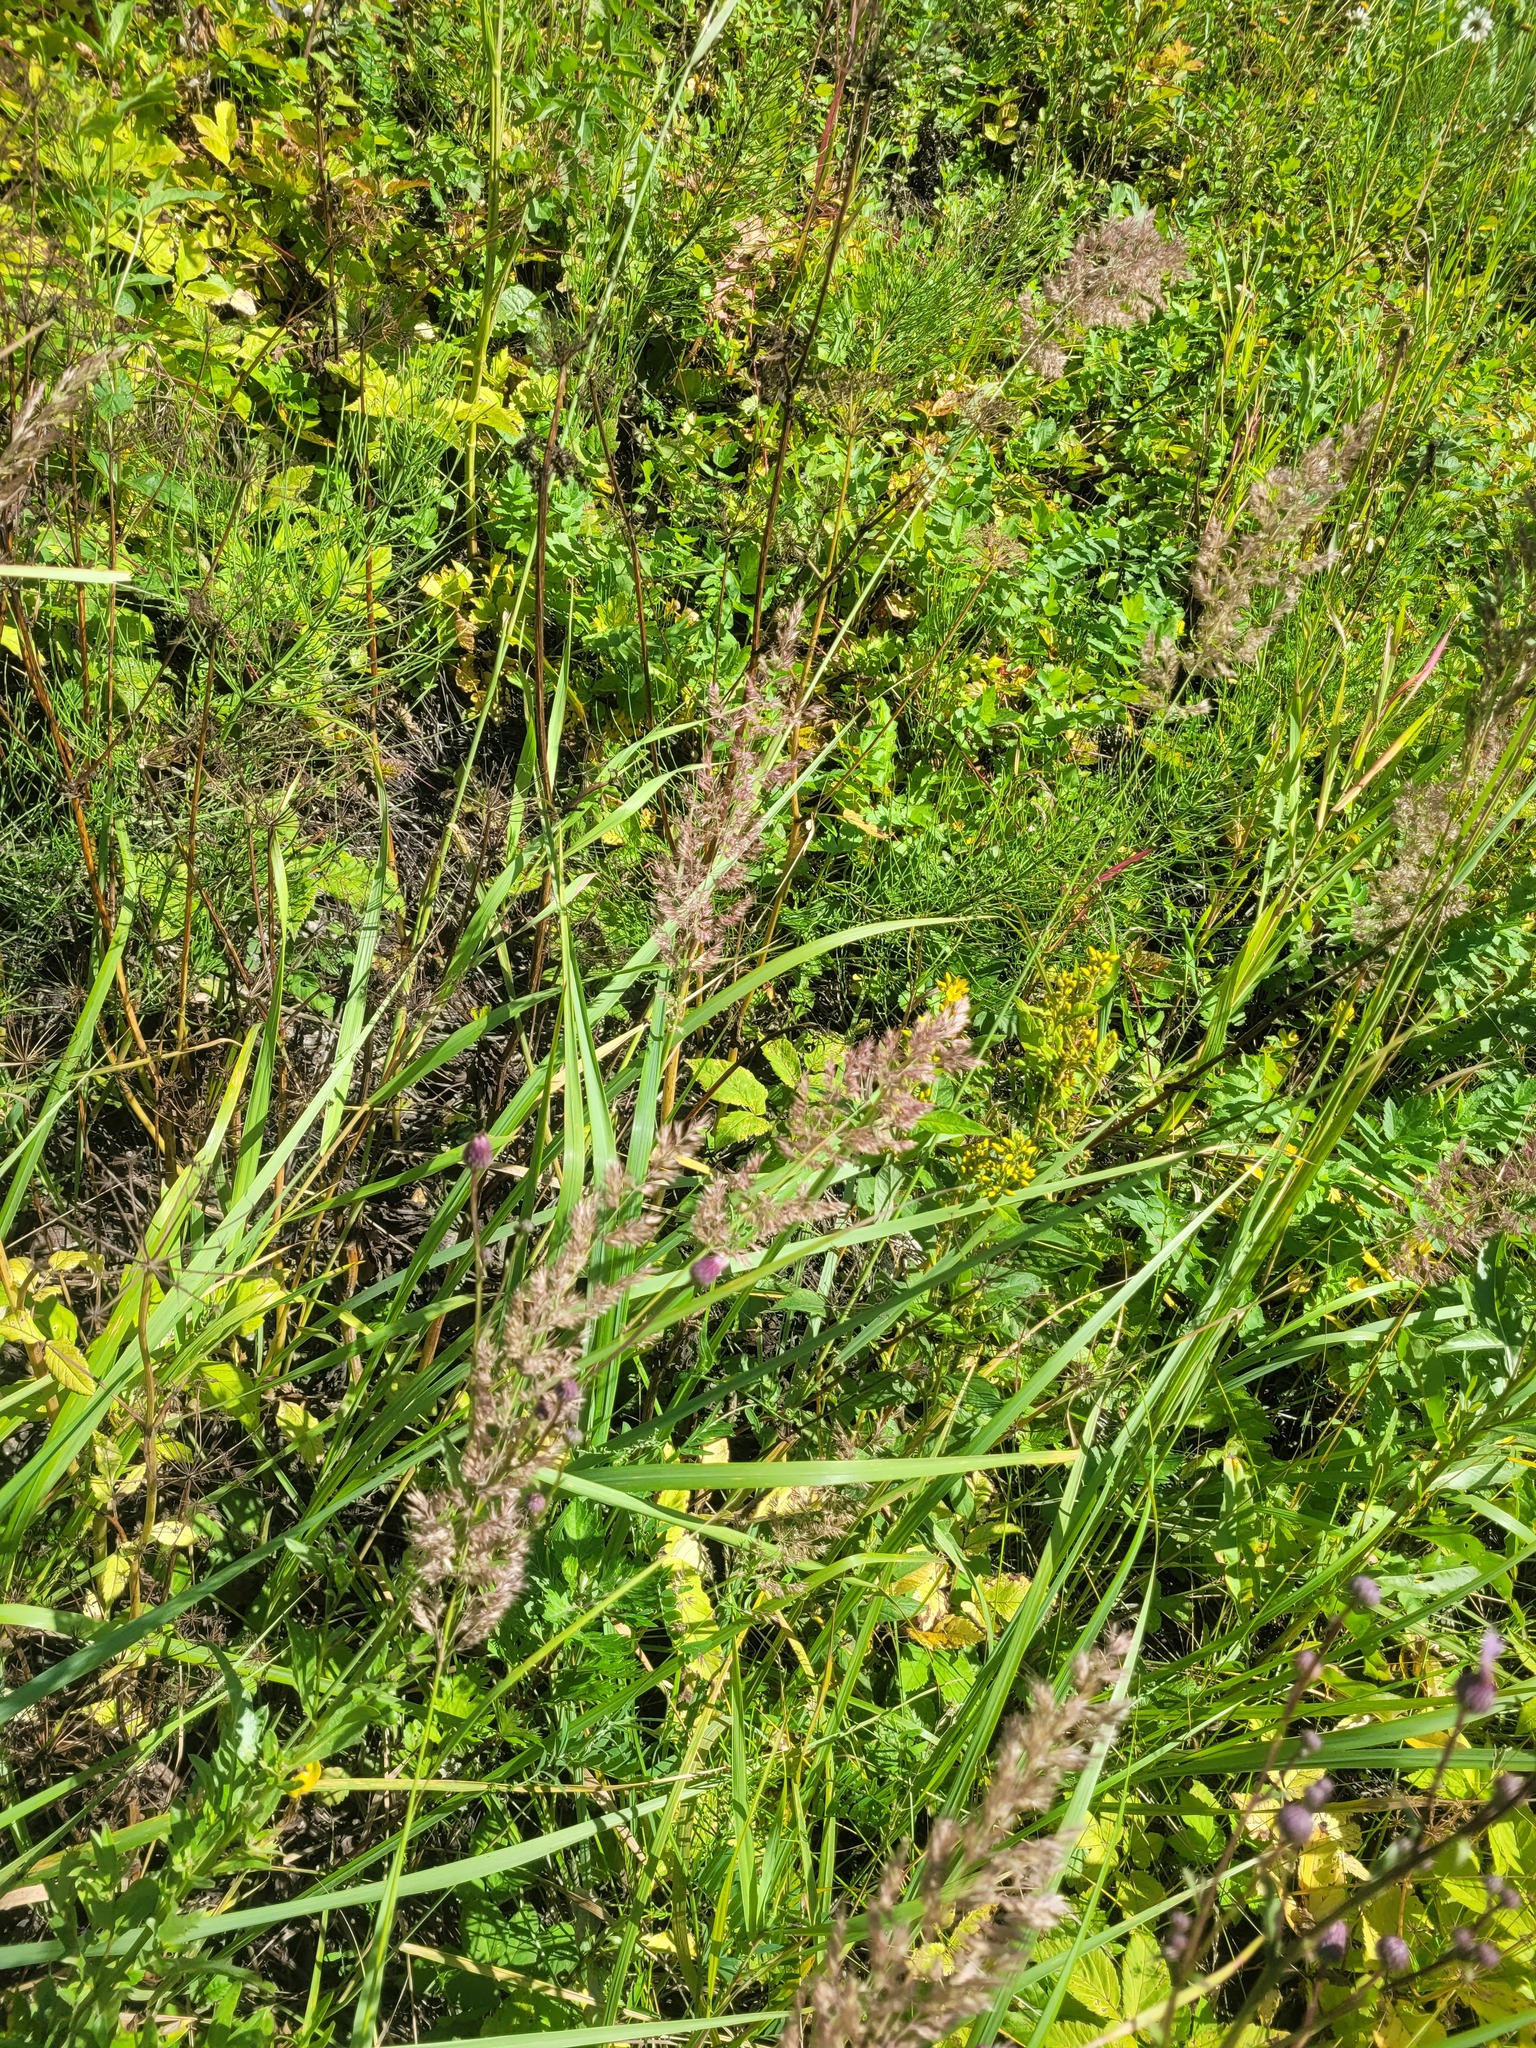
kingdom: Plantae
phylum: Tracheophyta
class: Liliopsida
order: Poales
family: Poaceae
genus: Calamagrostis
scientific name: Calamagrostis epigejos
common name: Wood small-reed
